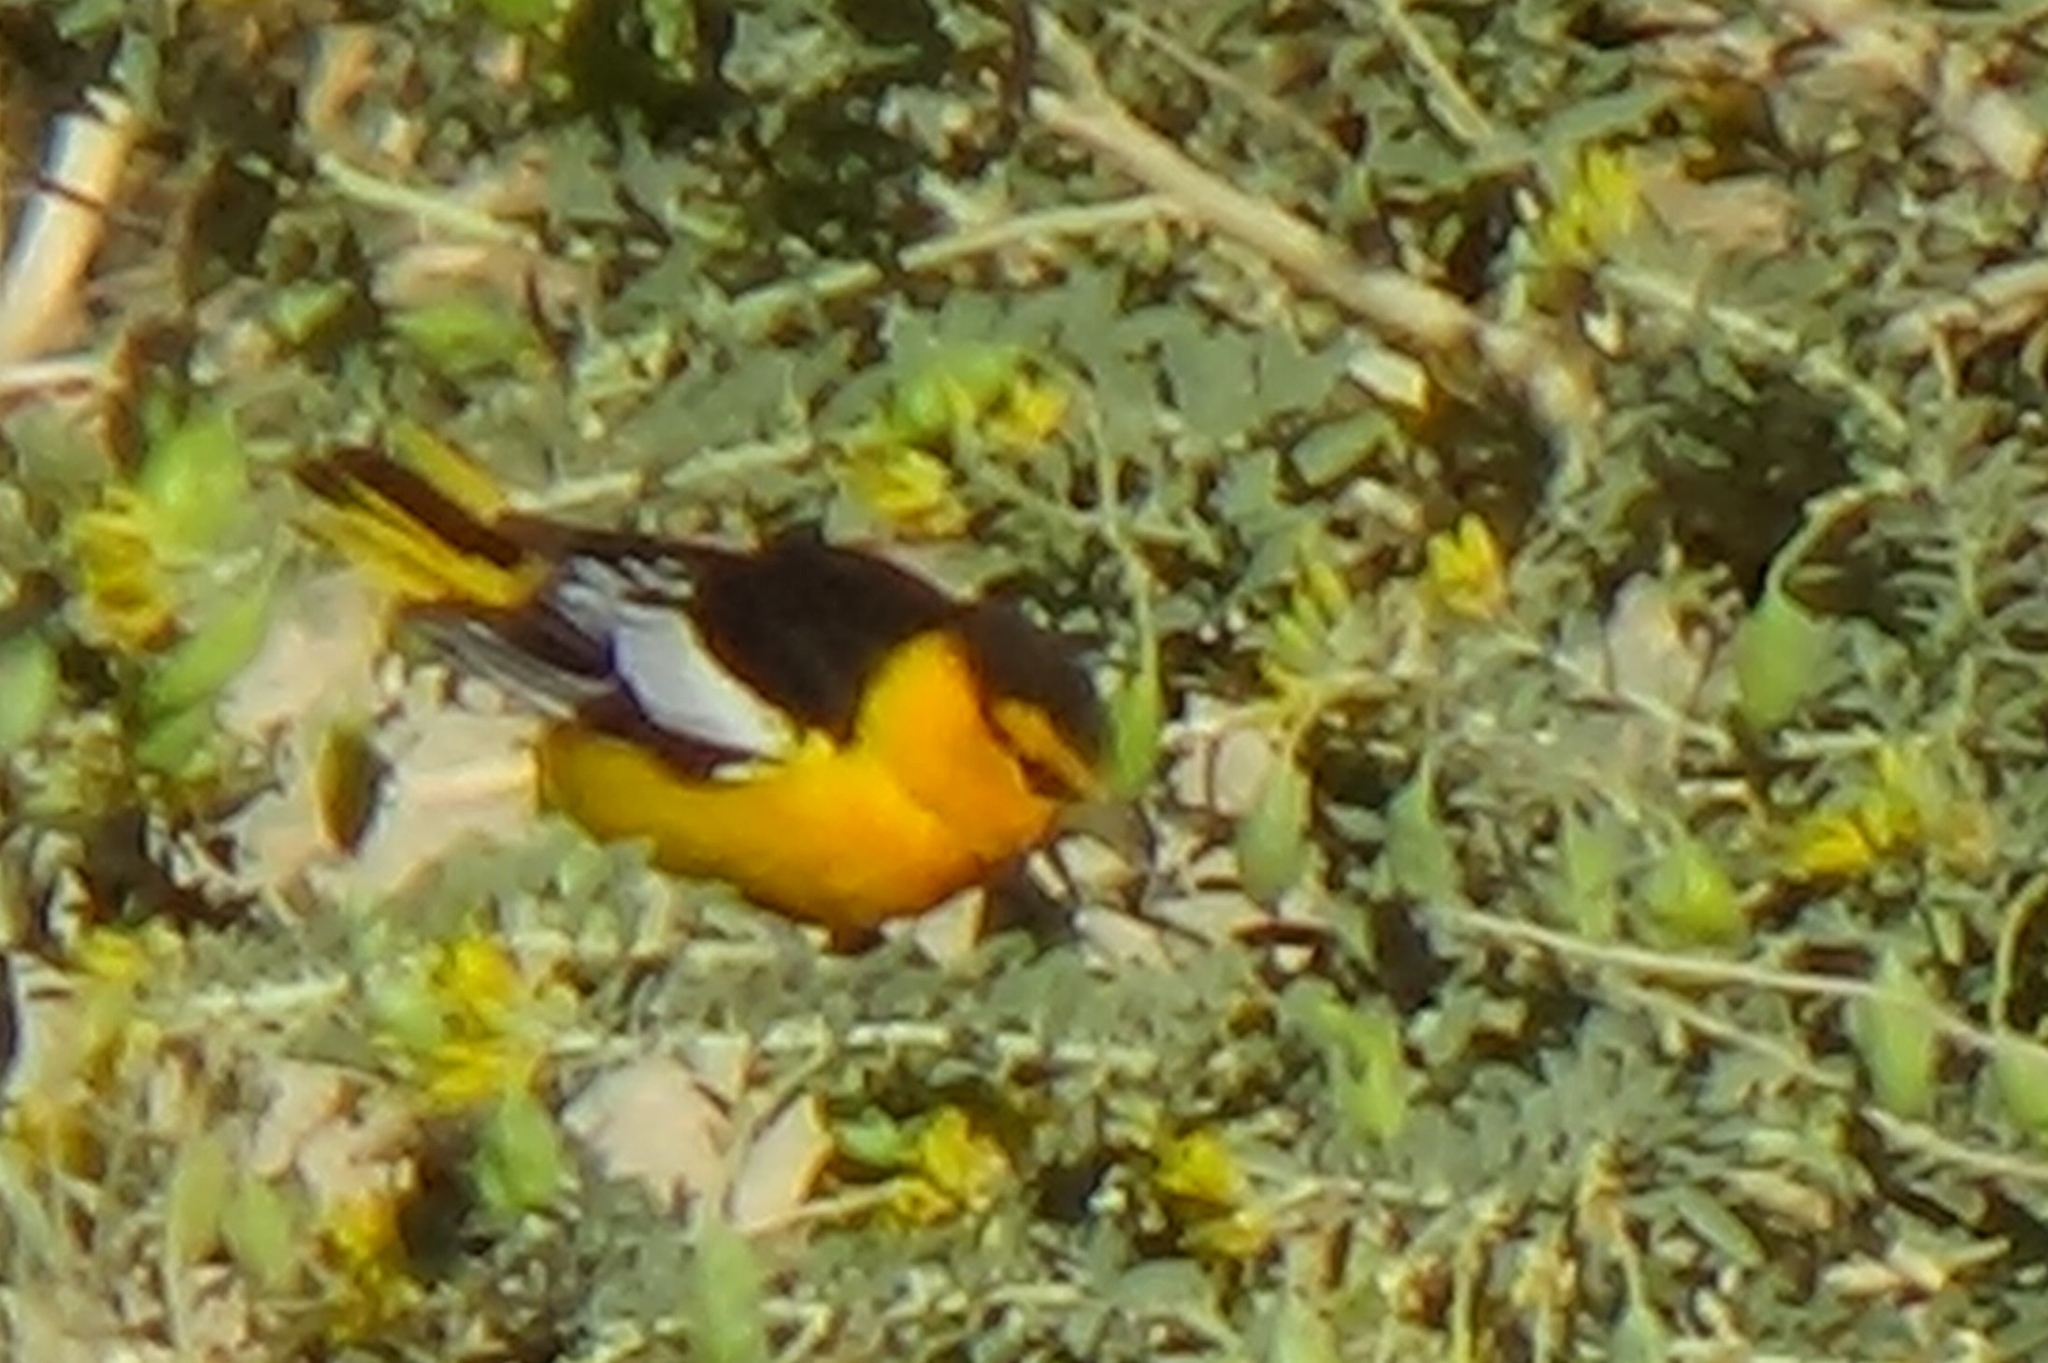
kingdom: Animalia
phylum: Chordata
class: Aves
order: Passeriformes
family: Icteridae
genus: Icterus
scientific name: Icterus bullockii
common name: Bullock's oriole
